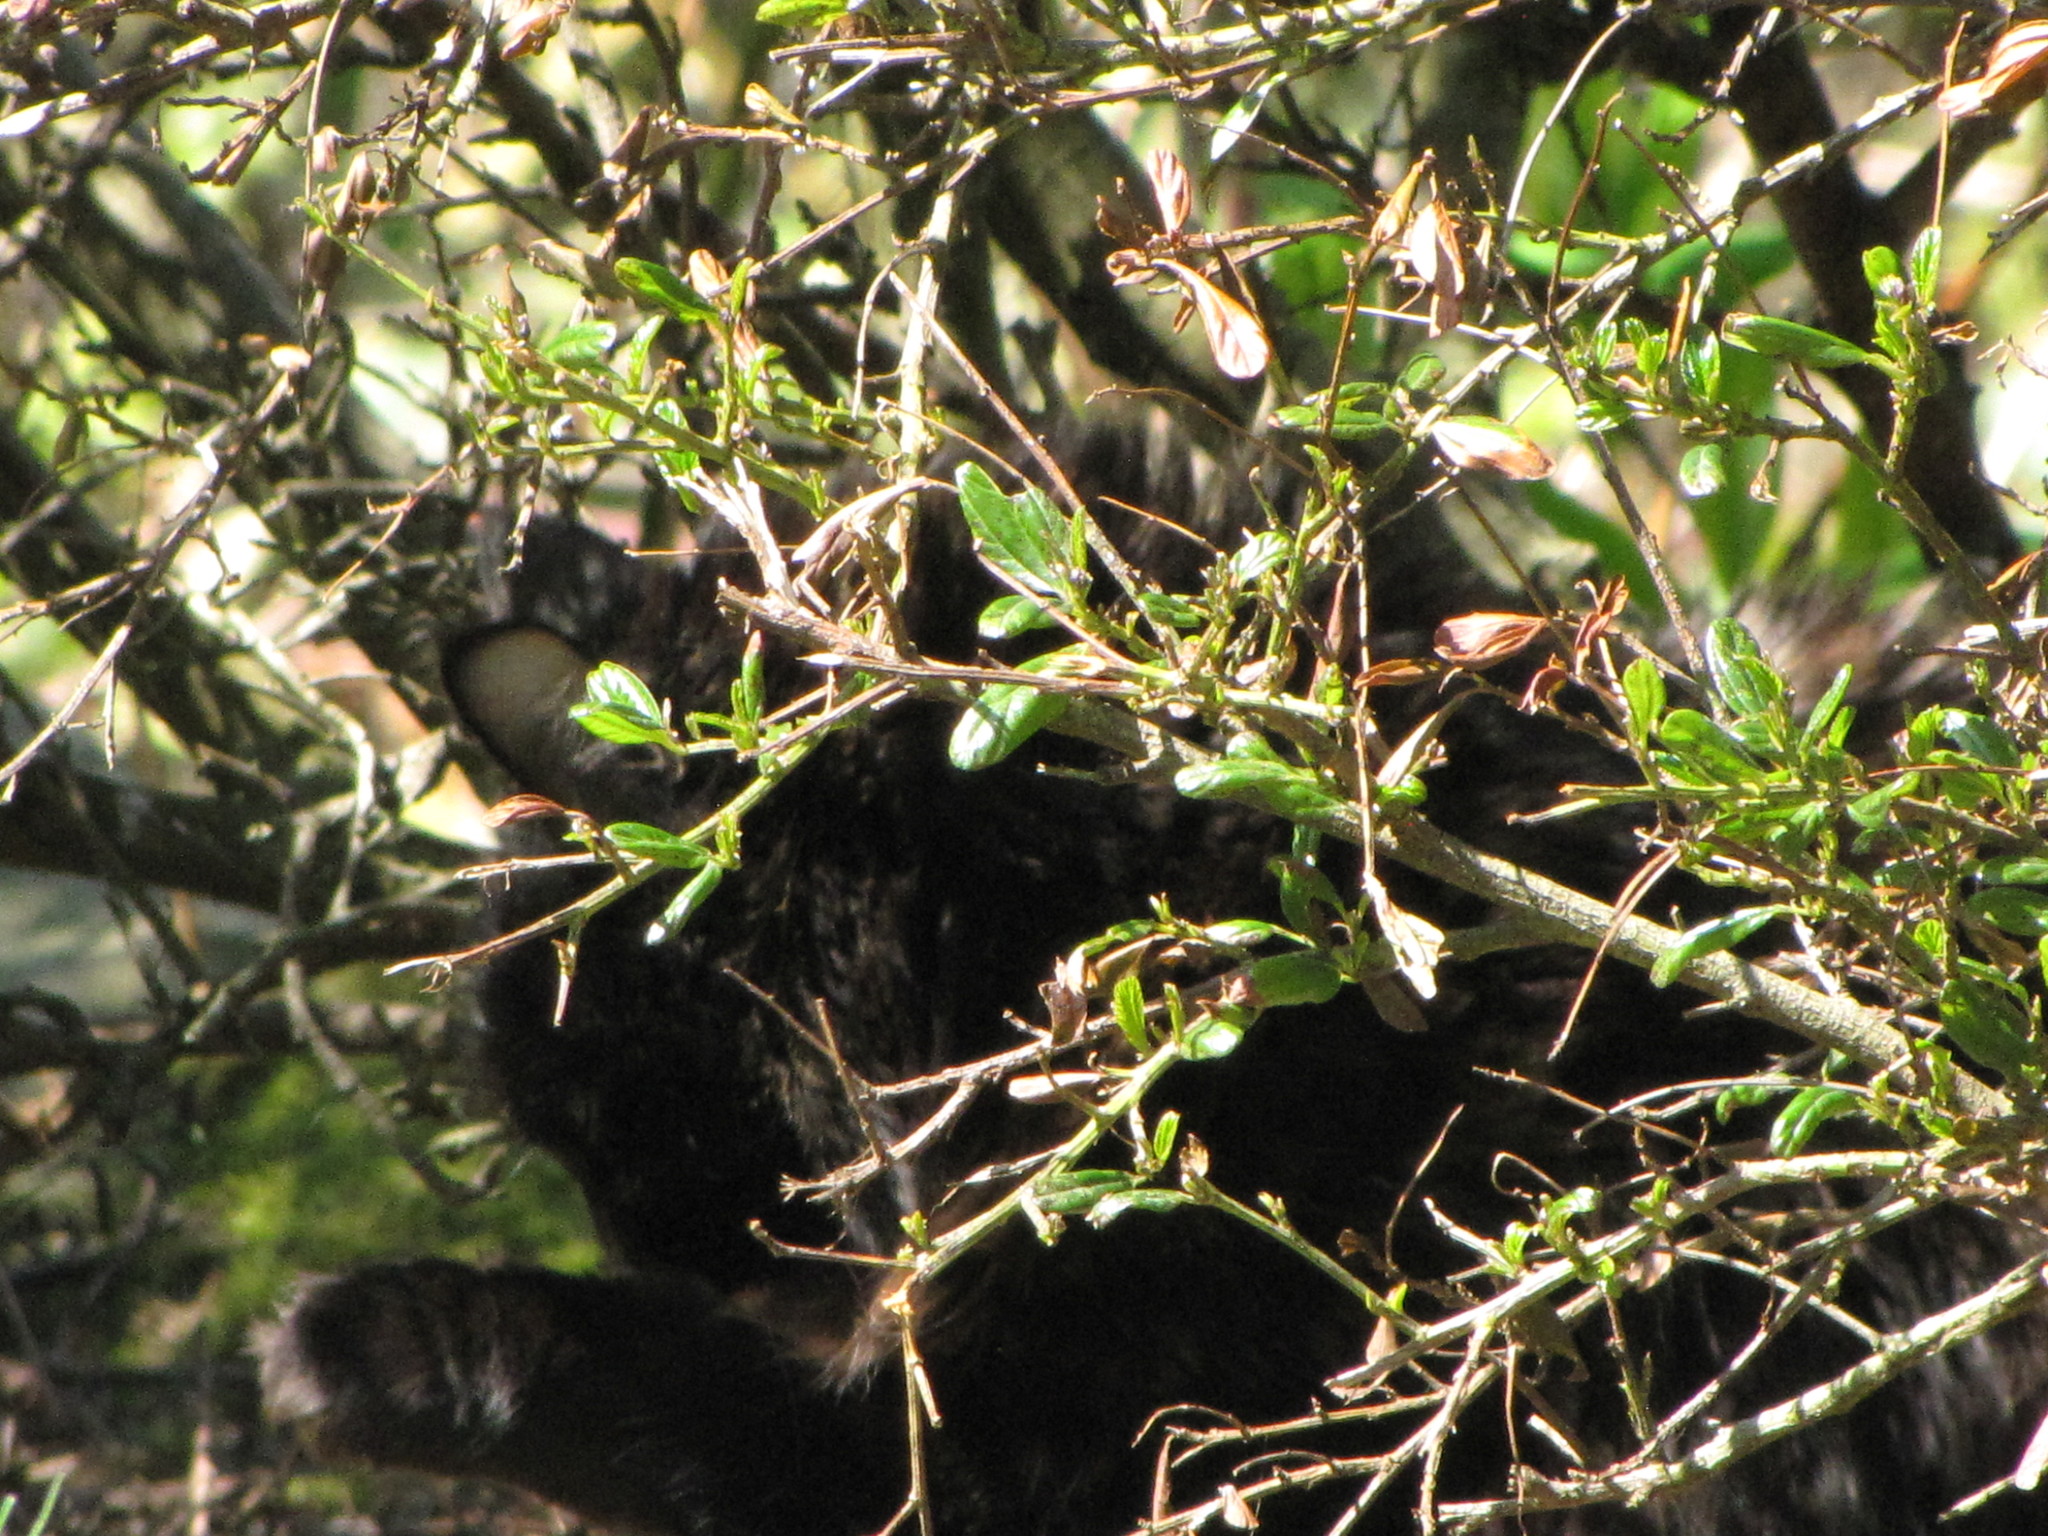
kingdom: Animalia
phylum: Chordata
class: Mammalia
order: Carnivora
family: Felidae
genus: Felis
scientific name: Felis catus
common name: Domestic cat
